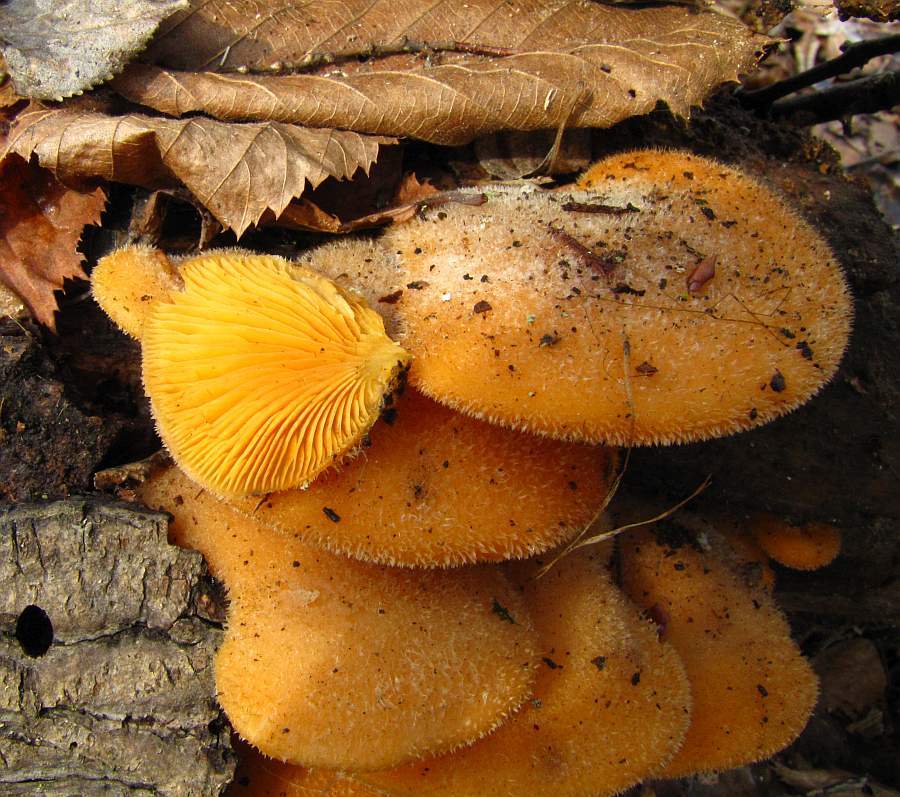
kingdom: Fungi
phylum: Basidiomycota
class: Agaricomycetes
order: Agaricales
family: Phyllotopsidaceae
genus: Phyllotopsis
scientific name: Phyllotopsis nidulans
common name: Orange mock oyster
